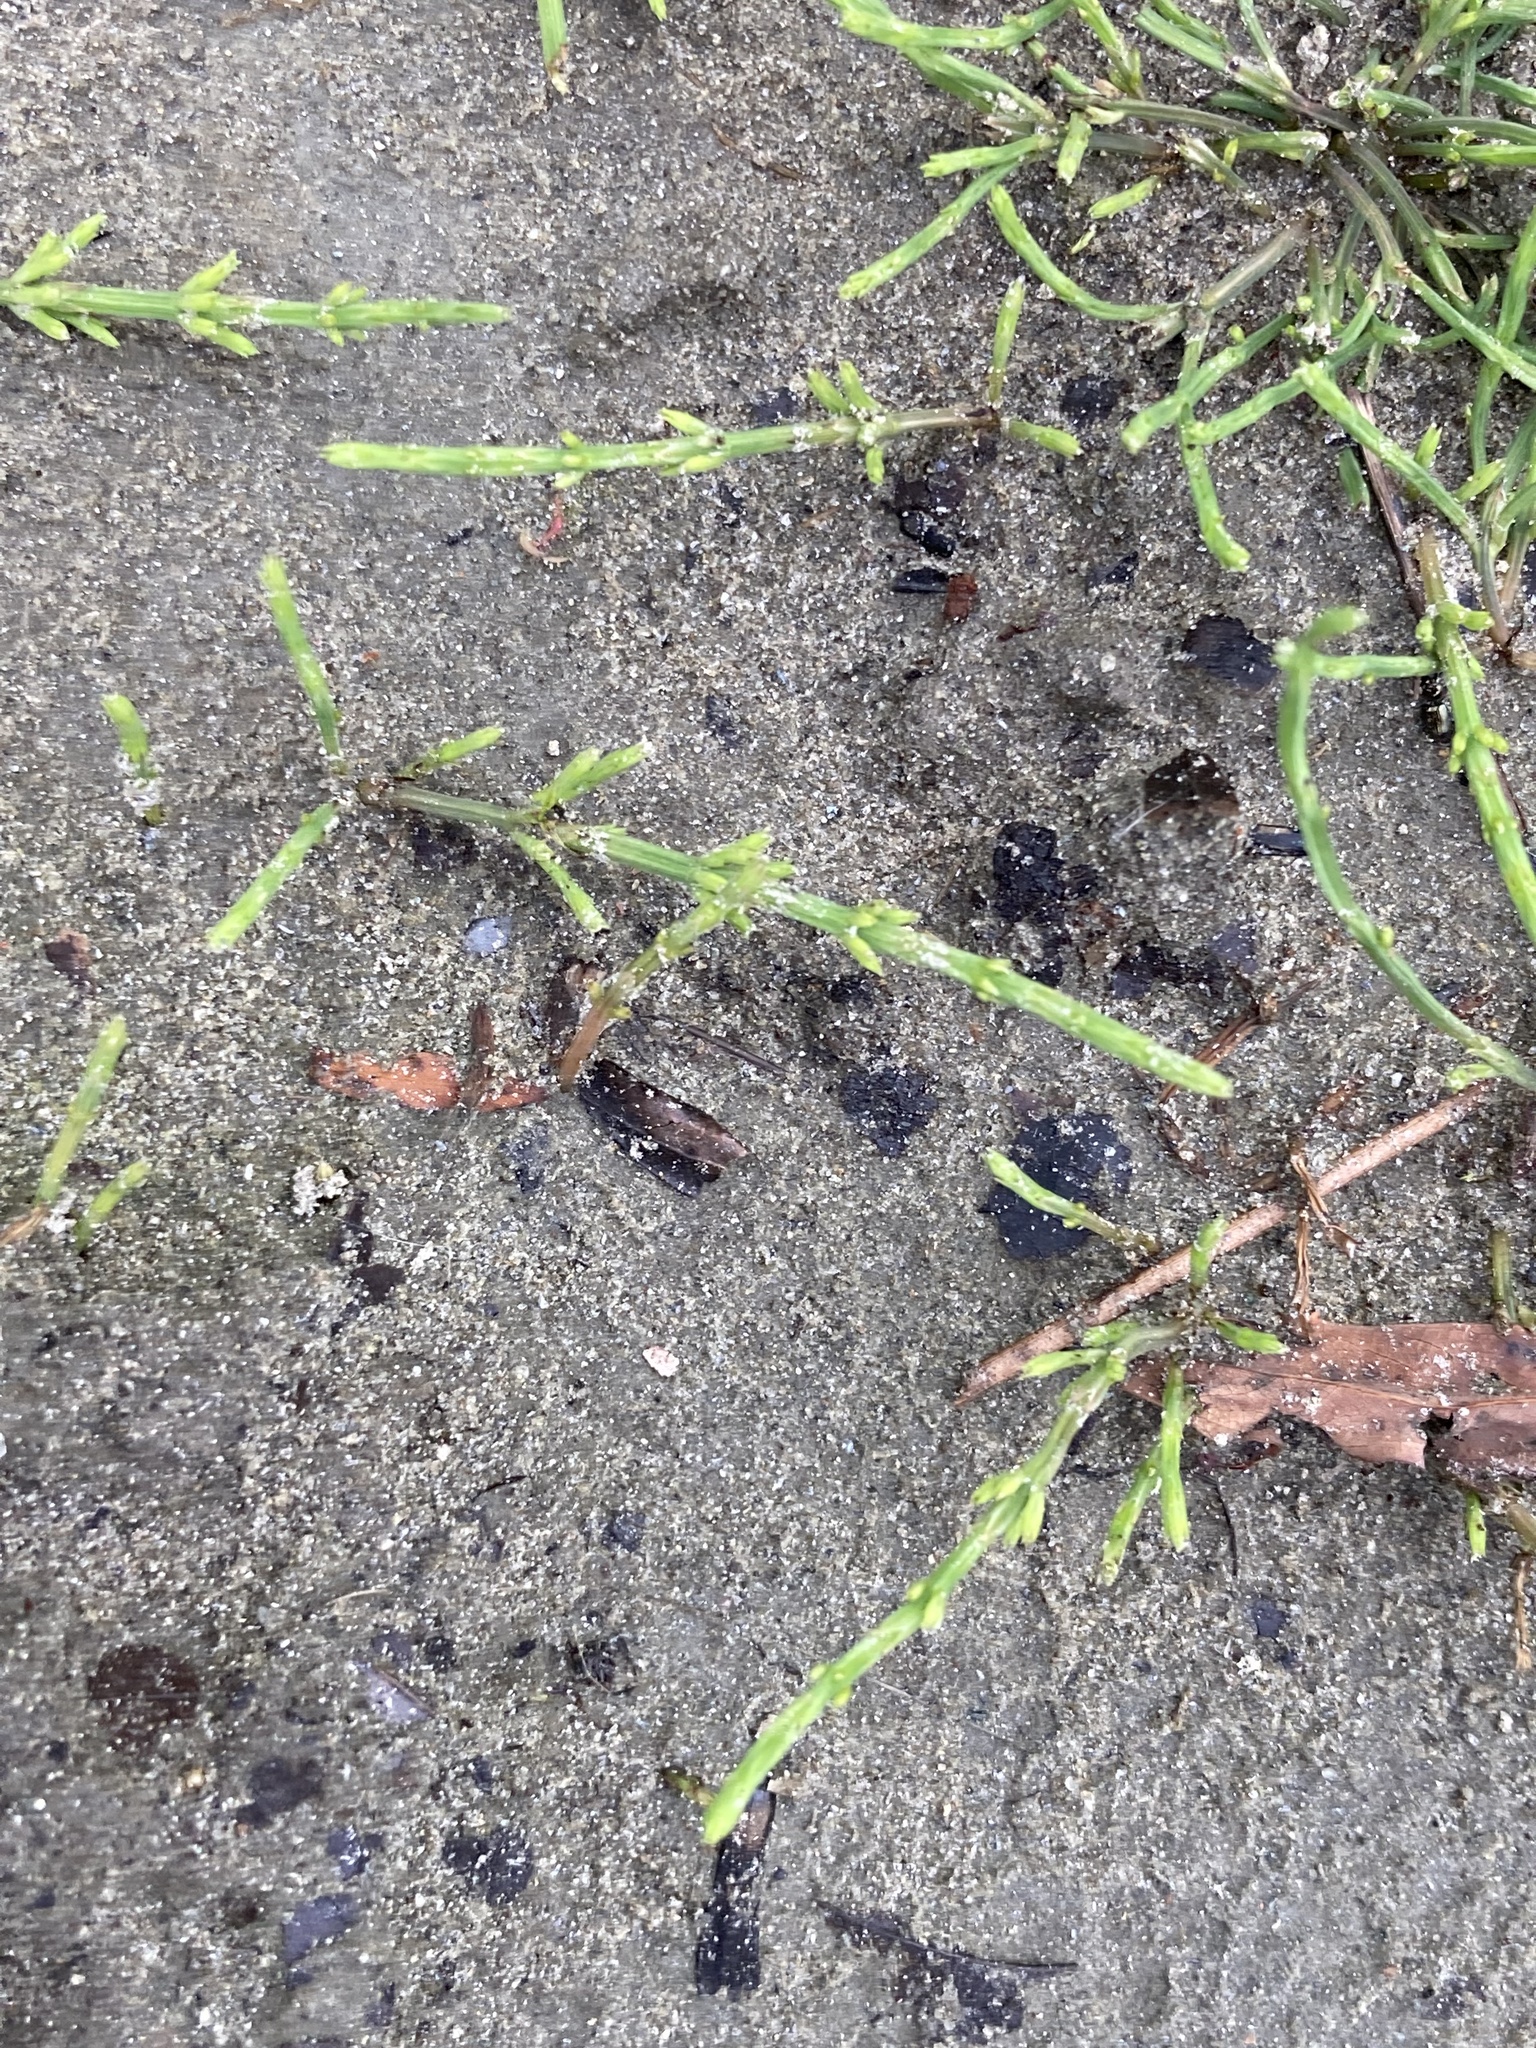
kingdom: Plantae
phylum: Tracheophyta
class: Polypodiopsida
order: Equisetales
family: Equisetaceae
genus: Equisetum
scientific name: Equisetum arvense
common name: Field horsetail
